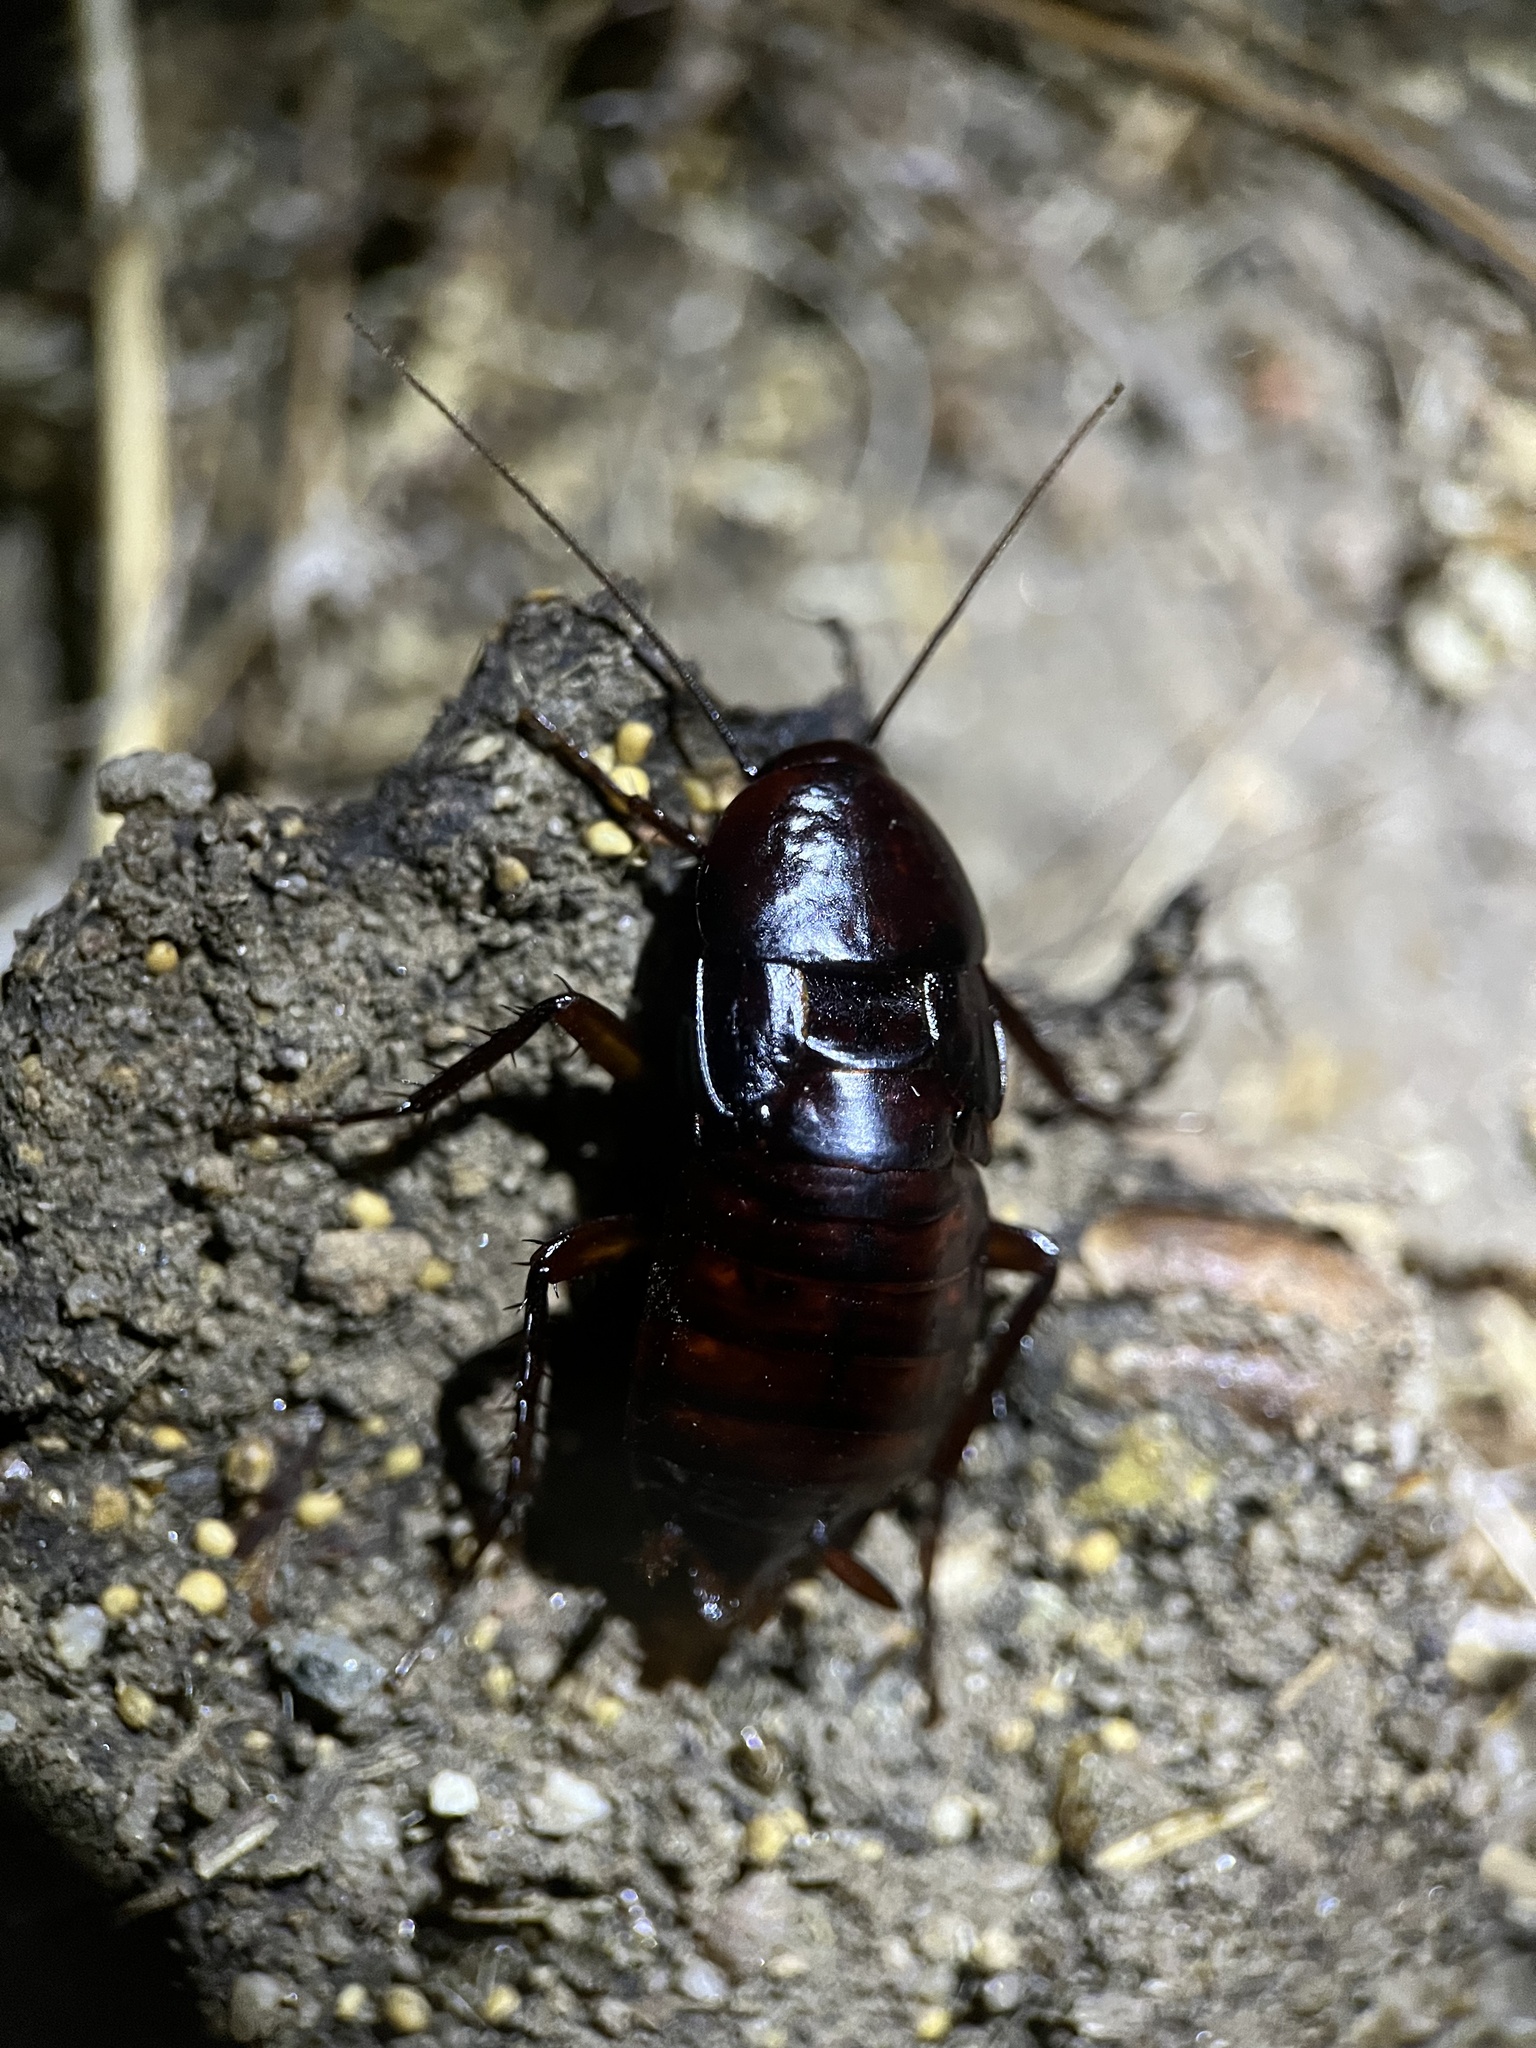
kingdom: Animalia
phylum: Arthropoda
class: Insecta
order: Blattodea
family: Blattidae
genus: Blatta
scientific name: Blatta orientalis
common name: Oriental cockroach
